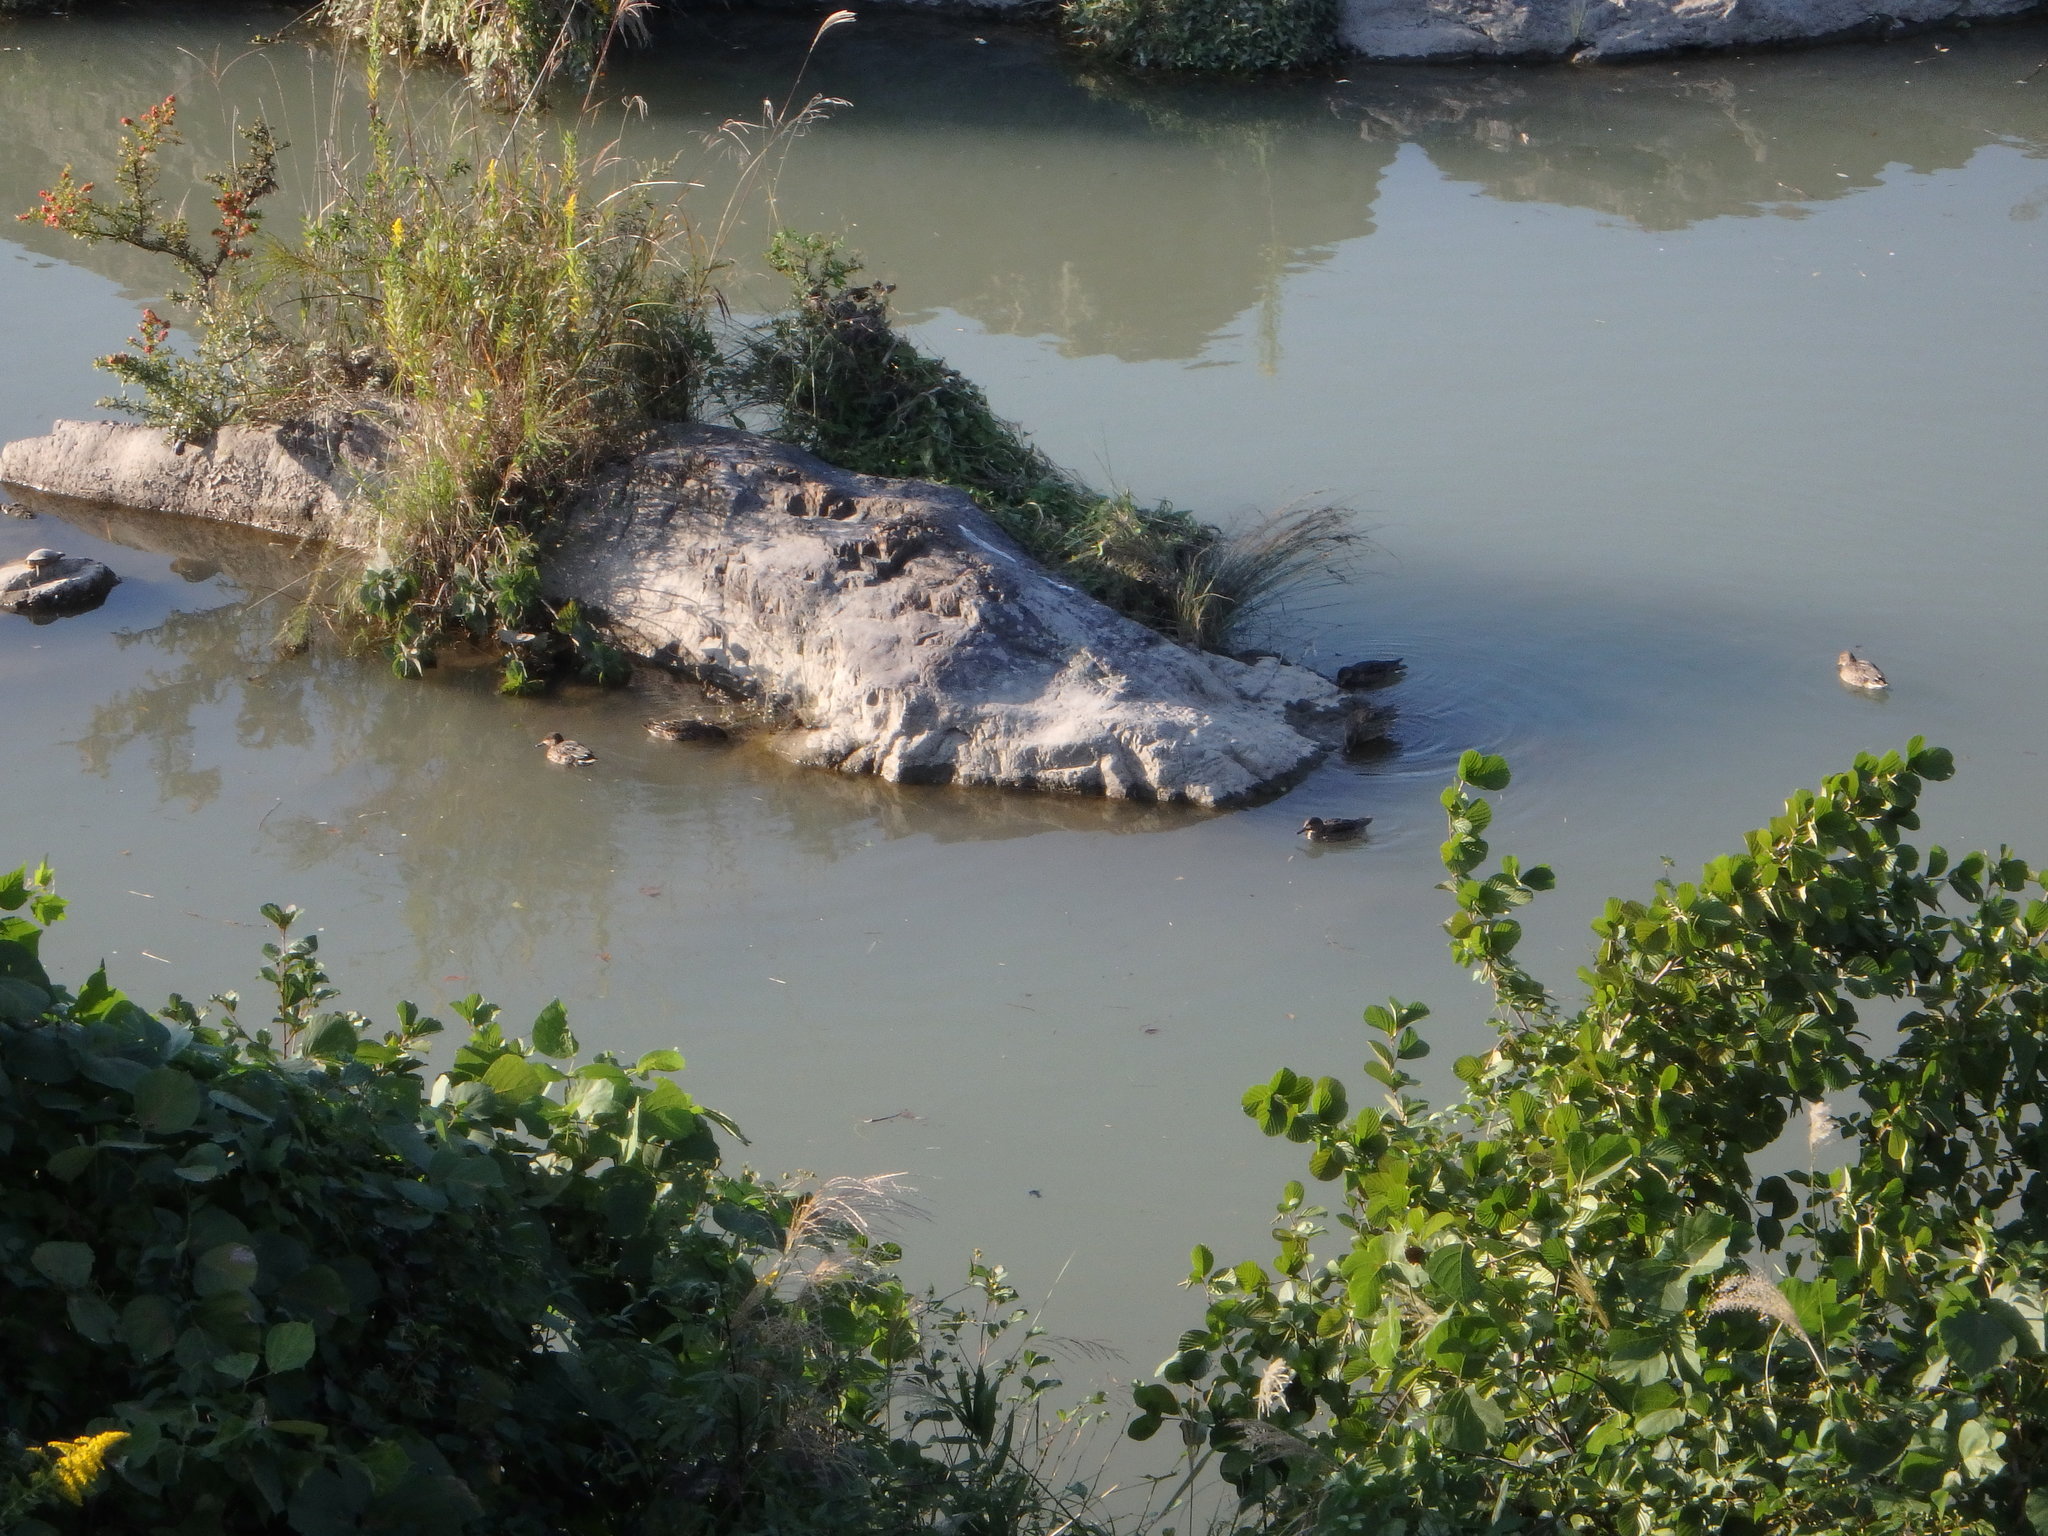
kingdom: Animalia
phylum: Chordata
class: Aves
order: Anseriformes
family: Anatidae
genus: Anas
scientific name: Anas crecca
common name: Eurasian teal
